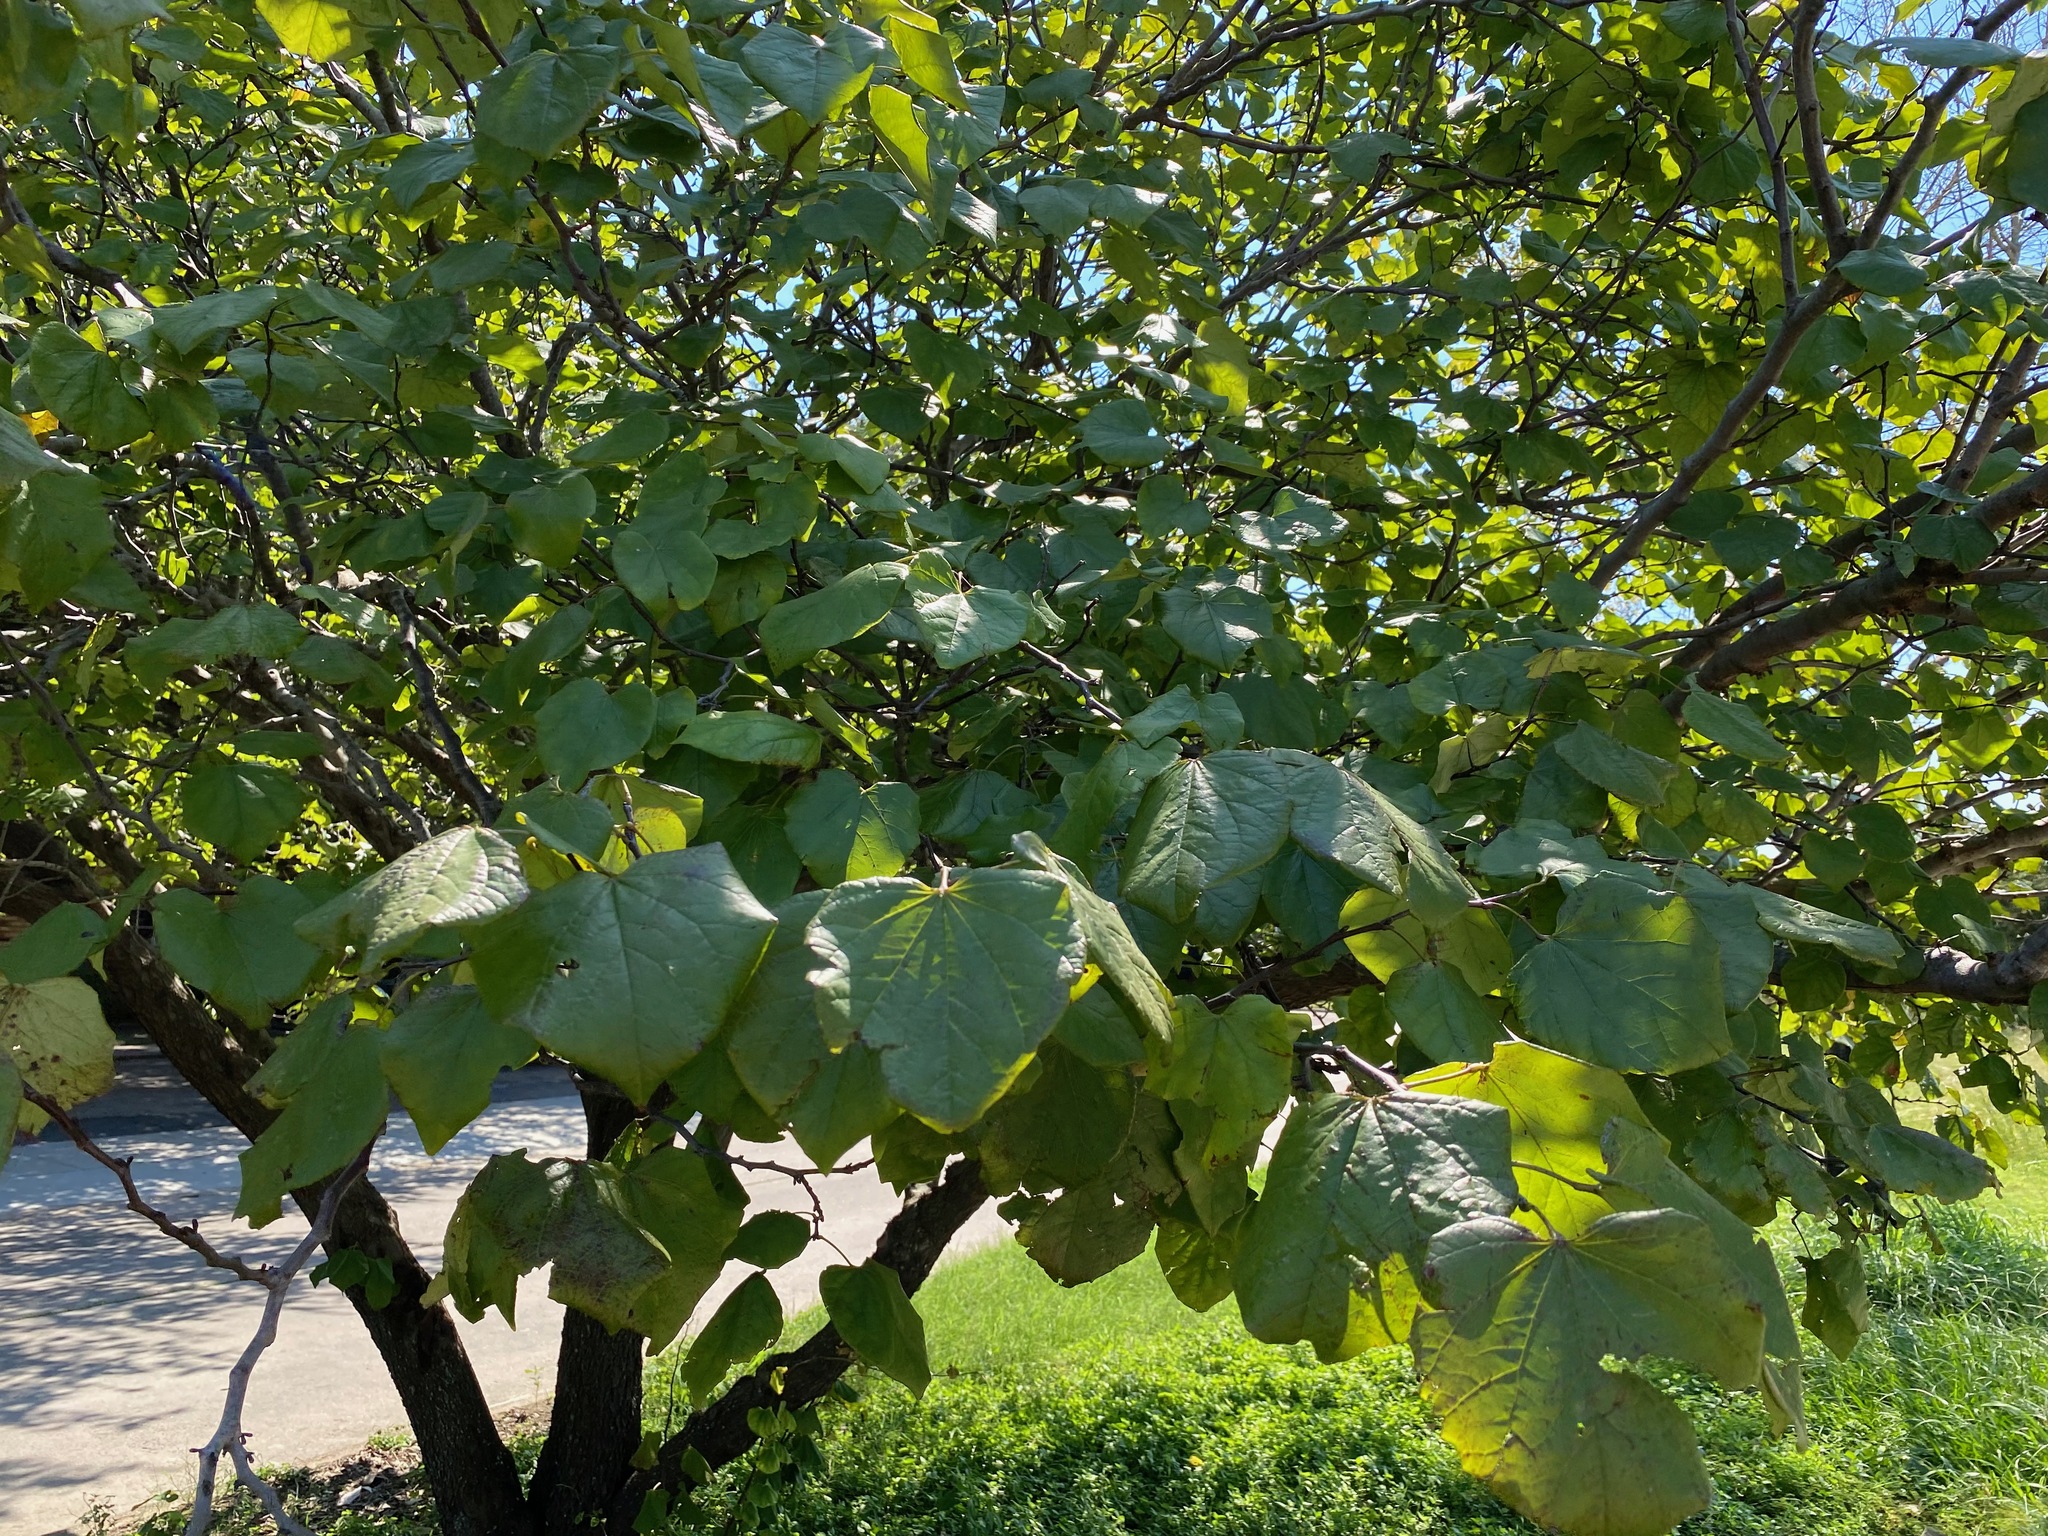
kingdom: Plantae
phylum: Tracheophyta
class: Magnoliopsida
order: Fabales
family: Fabaceae
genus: Cercis
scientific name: Cercis canadensis
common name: Eastern redbud
